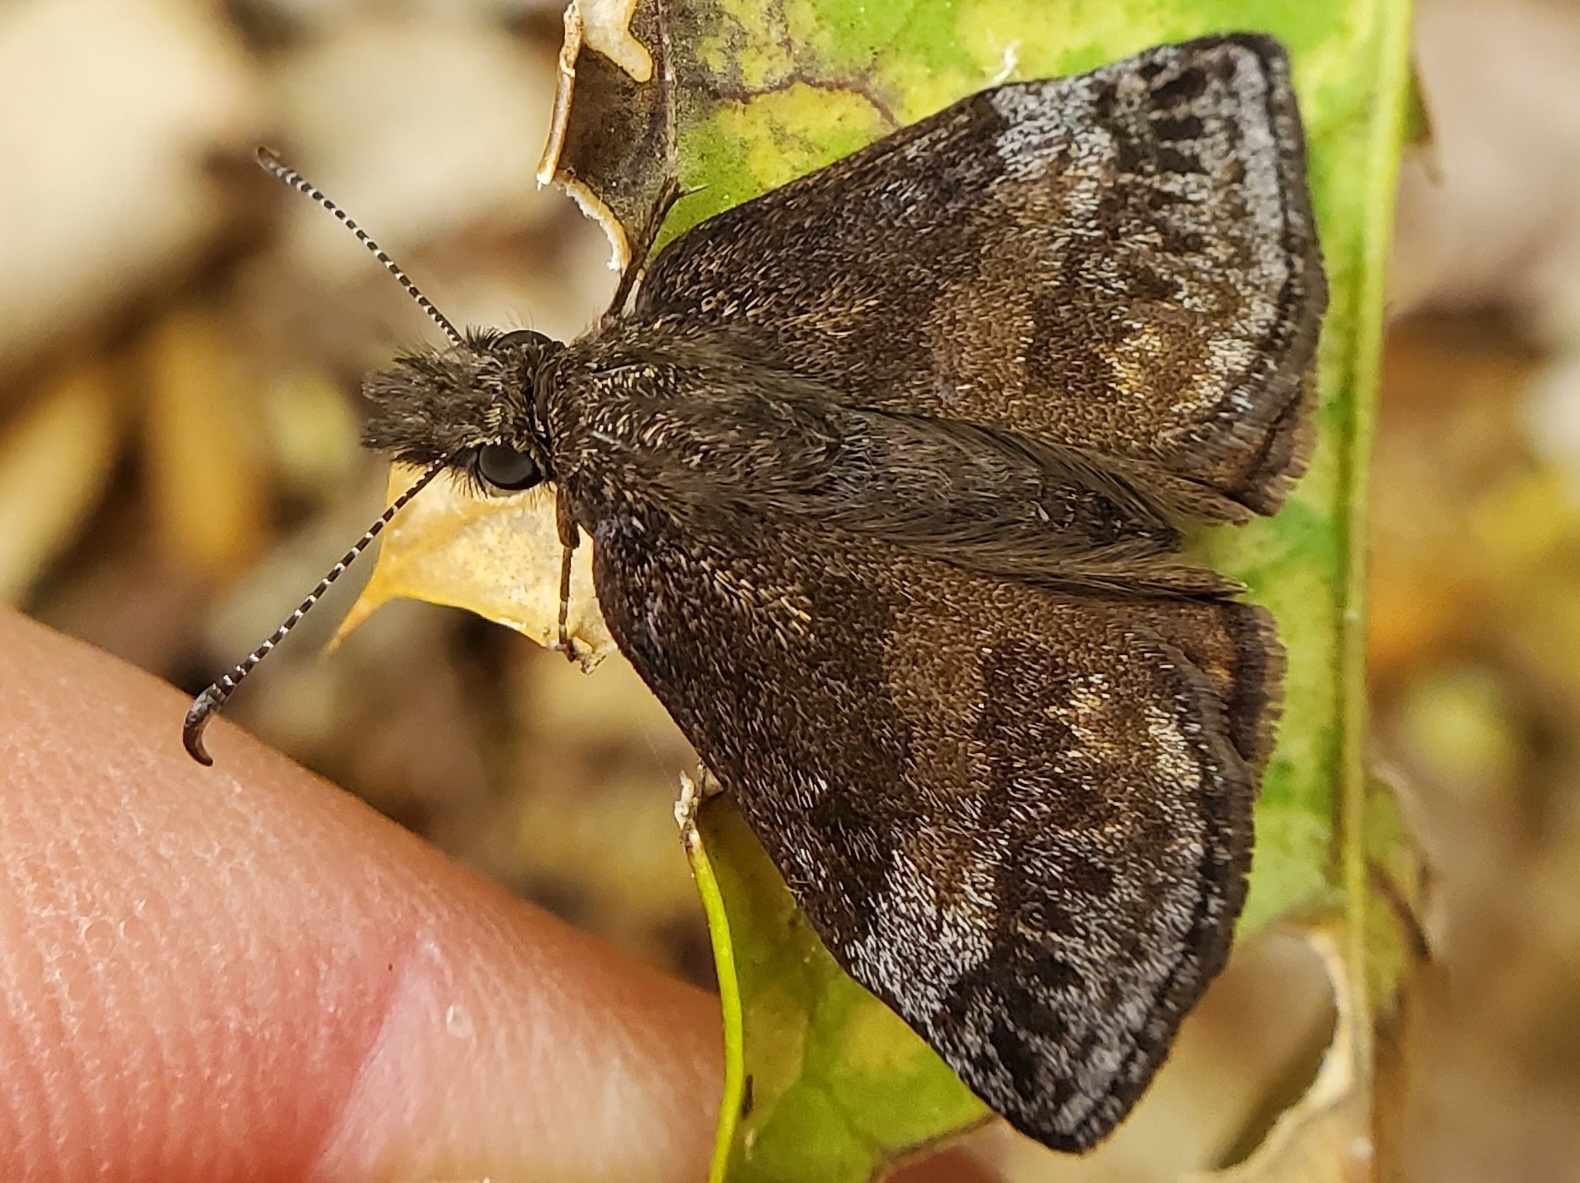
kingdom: Animalia
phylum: Arthropoda
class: Insecta
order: Lepidoptera
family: Hesperiidae
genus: Erynnis
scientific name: Erynnis icelus
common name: Dreamy duskywing
